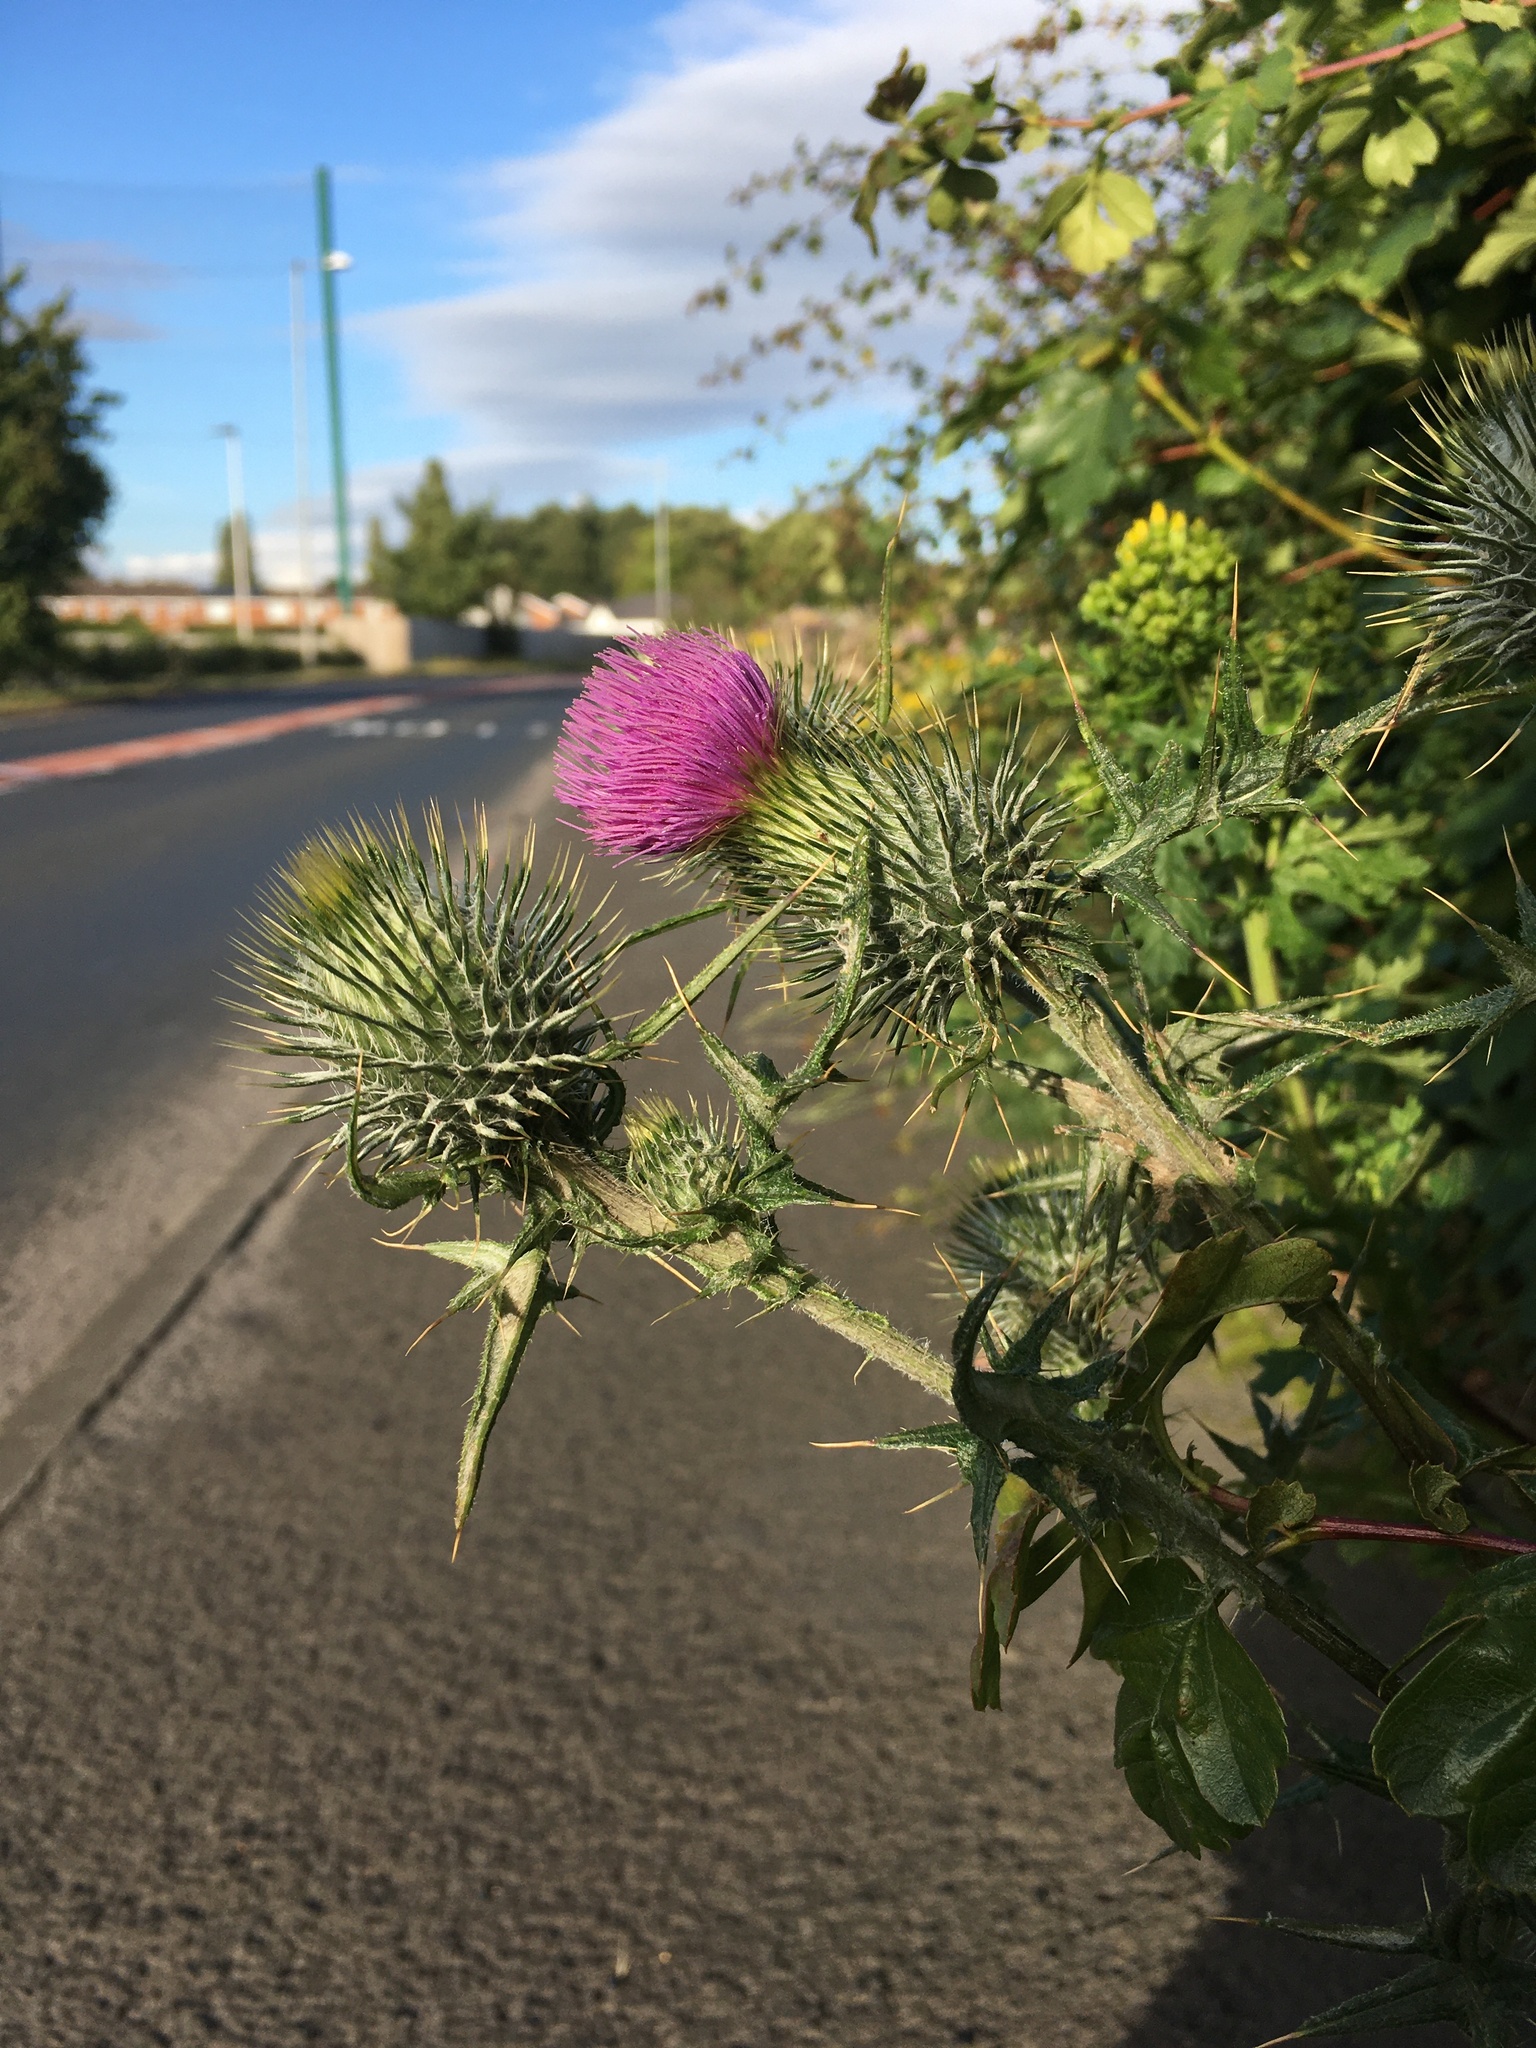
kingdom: Plantae
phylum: Tracheophyta
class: Magnoliopsida
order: Asterales
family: Asteraceae
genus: Cirsium
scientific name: Cirsium vulgare
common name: Bull thistle
